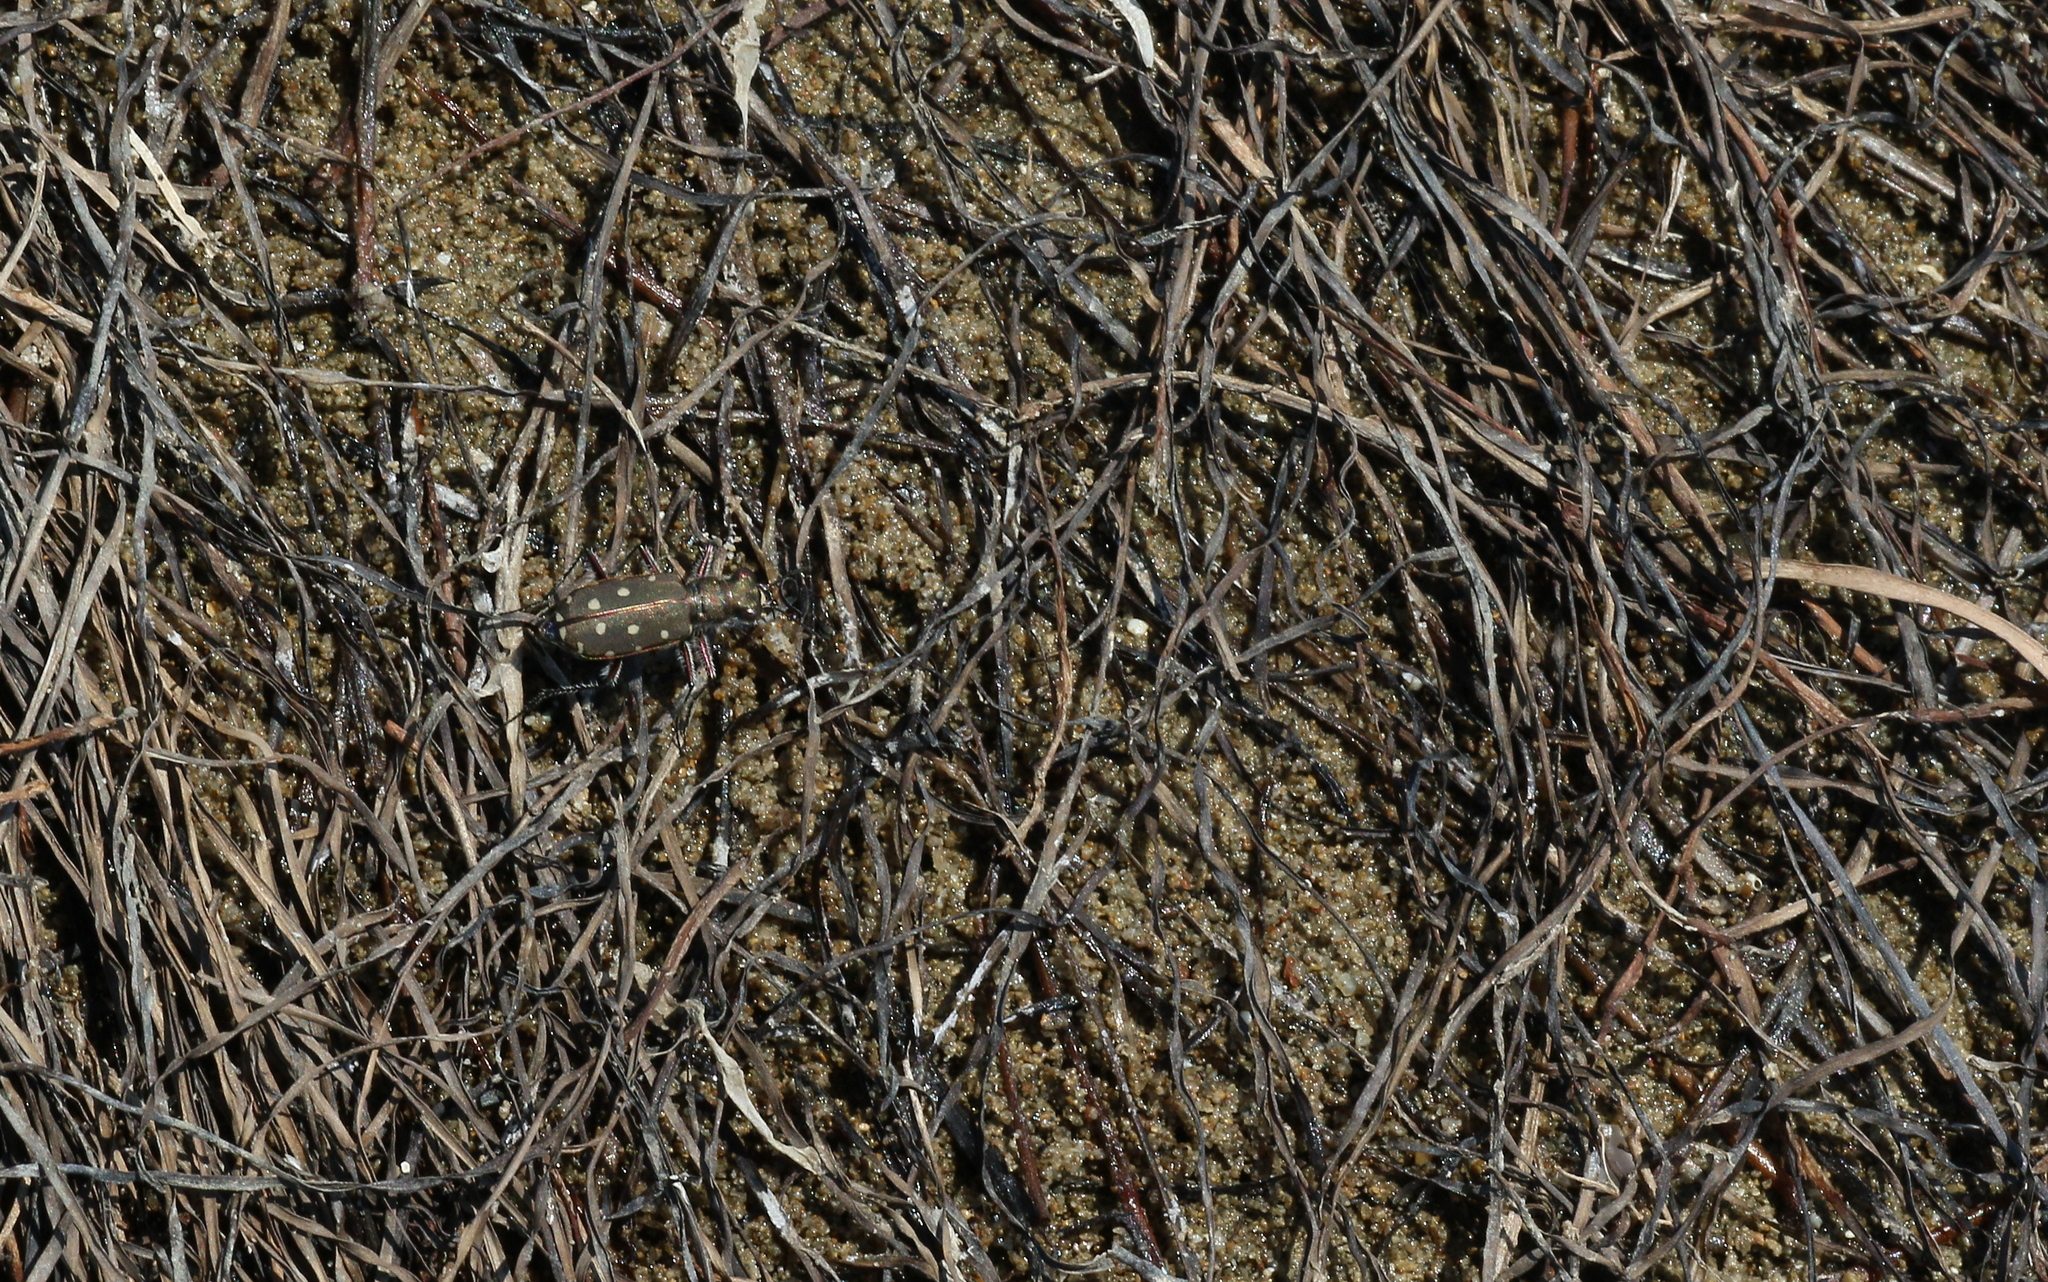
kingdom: Animalia
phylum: Arthropoda
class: Insecta
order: Coleoptera
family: Carabidae
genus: Cicindela
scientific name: Cicindela littoralis
